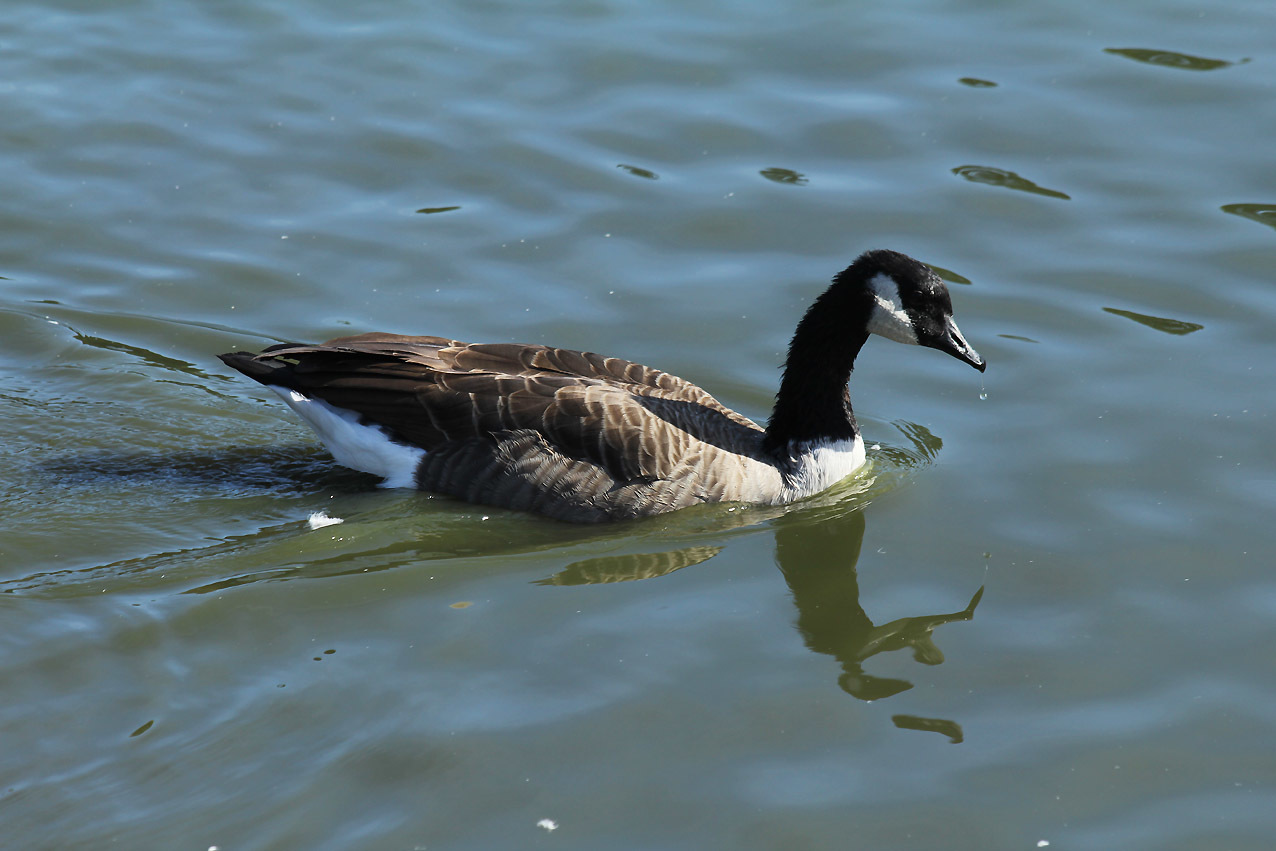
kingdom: Animalia
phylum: Chordata
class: Aves
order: Anseriformes
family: Anatidae
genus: Branta
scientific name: Branta canadensis
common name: Canada goose
